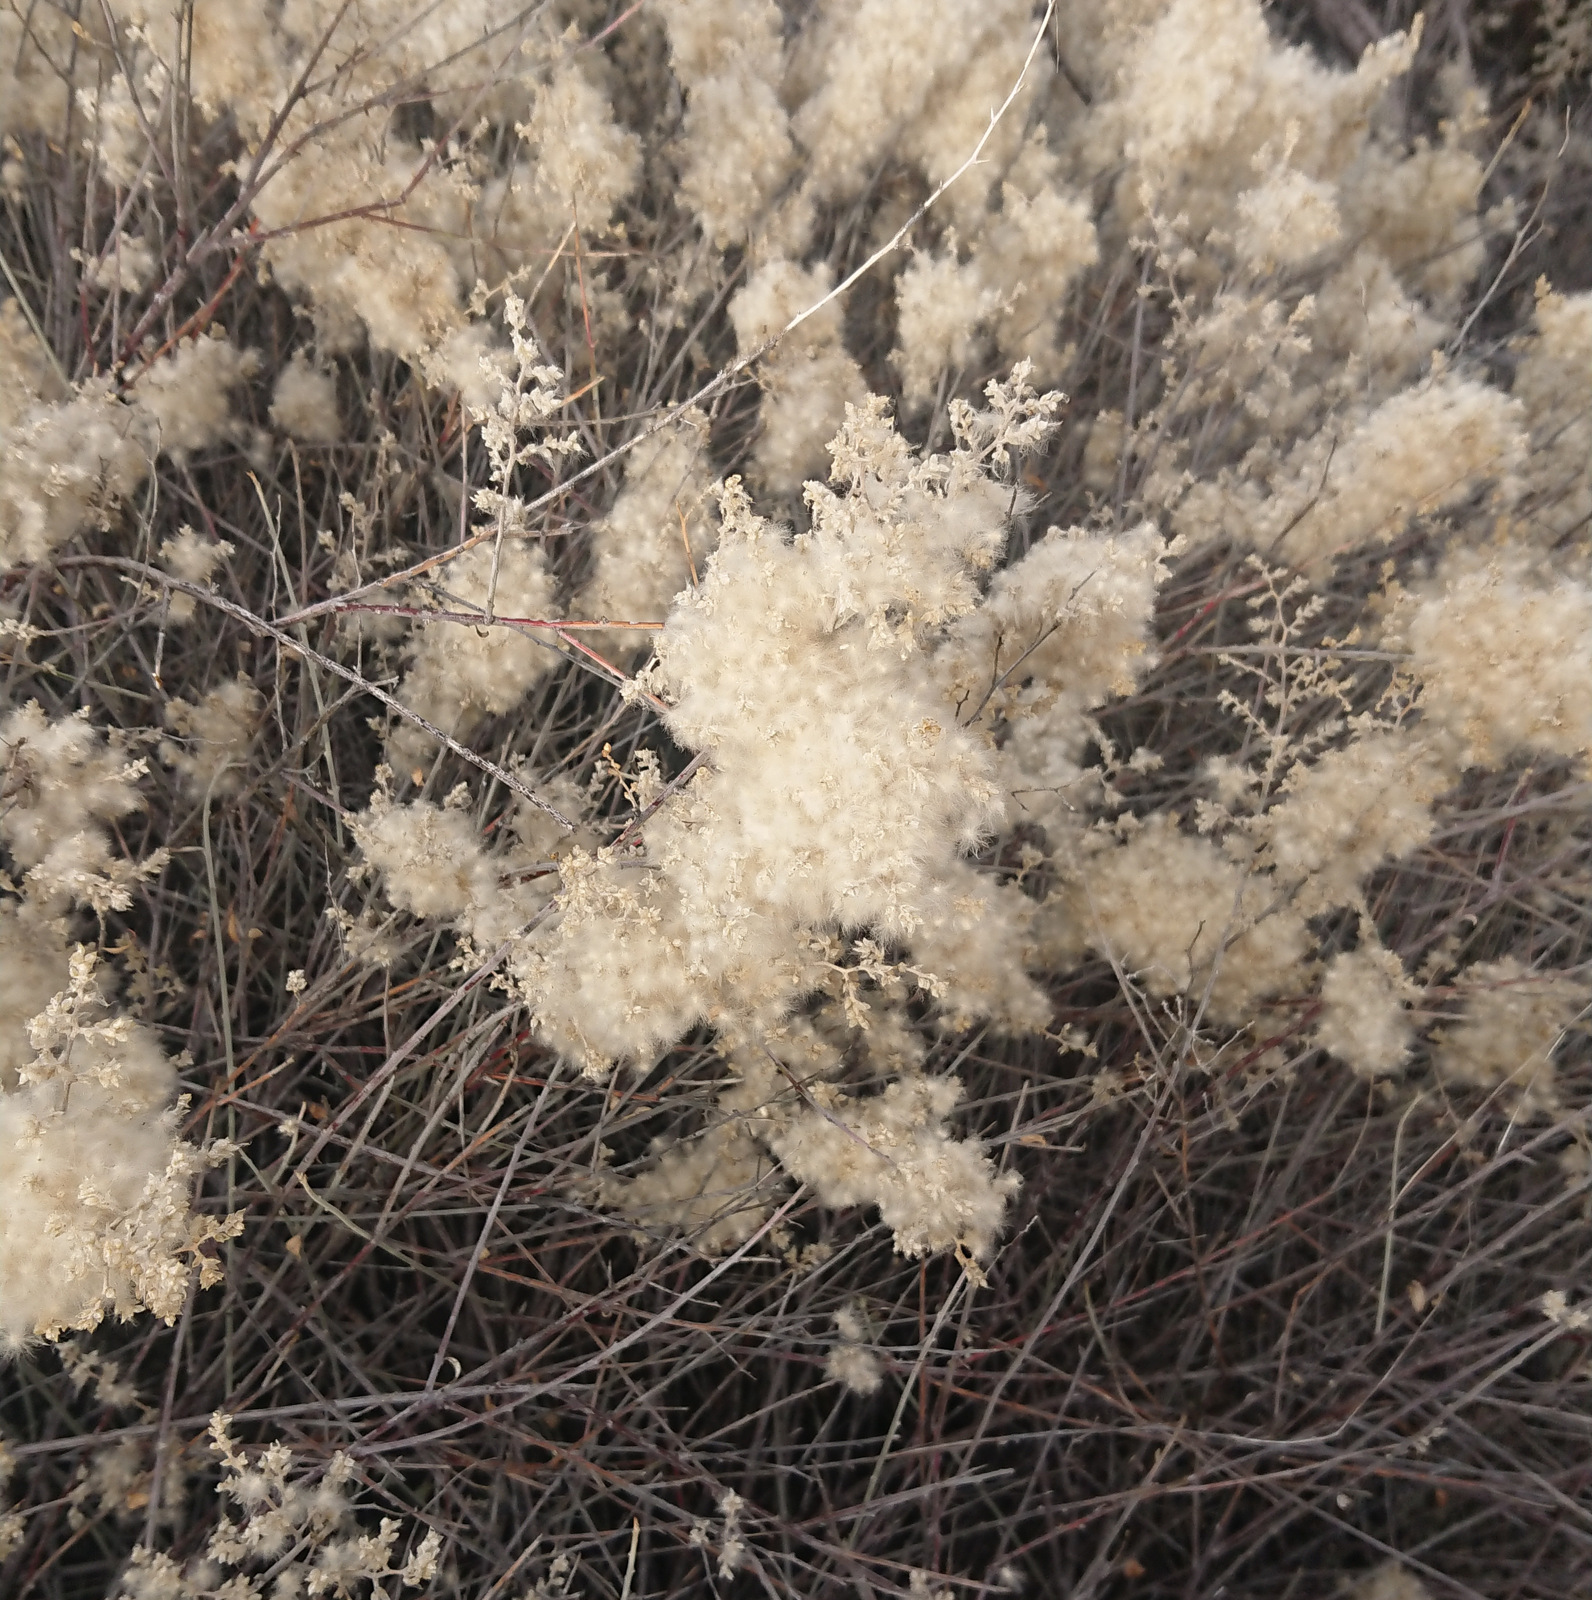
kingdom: Plantae
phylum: Tracheophyta
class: Magnoliopsida
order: Caryophyllales
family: Amaranthaceae
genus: Iresine
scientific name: Iresine leptoclada
